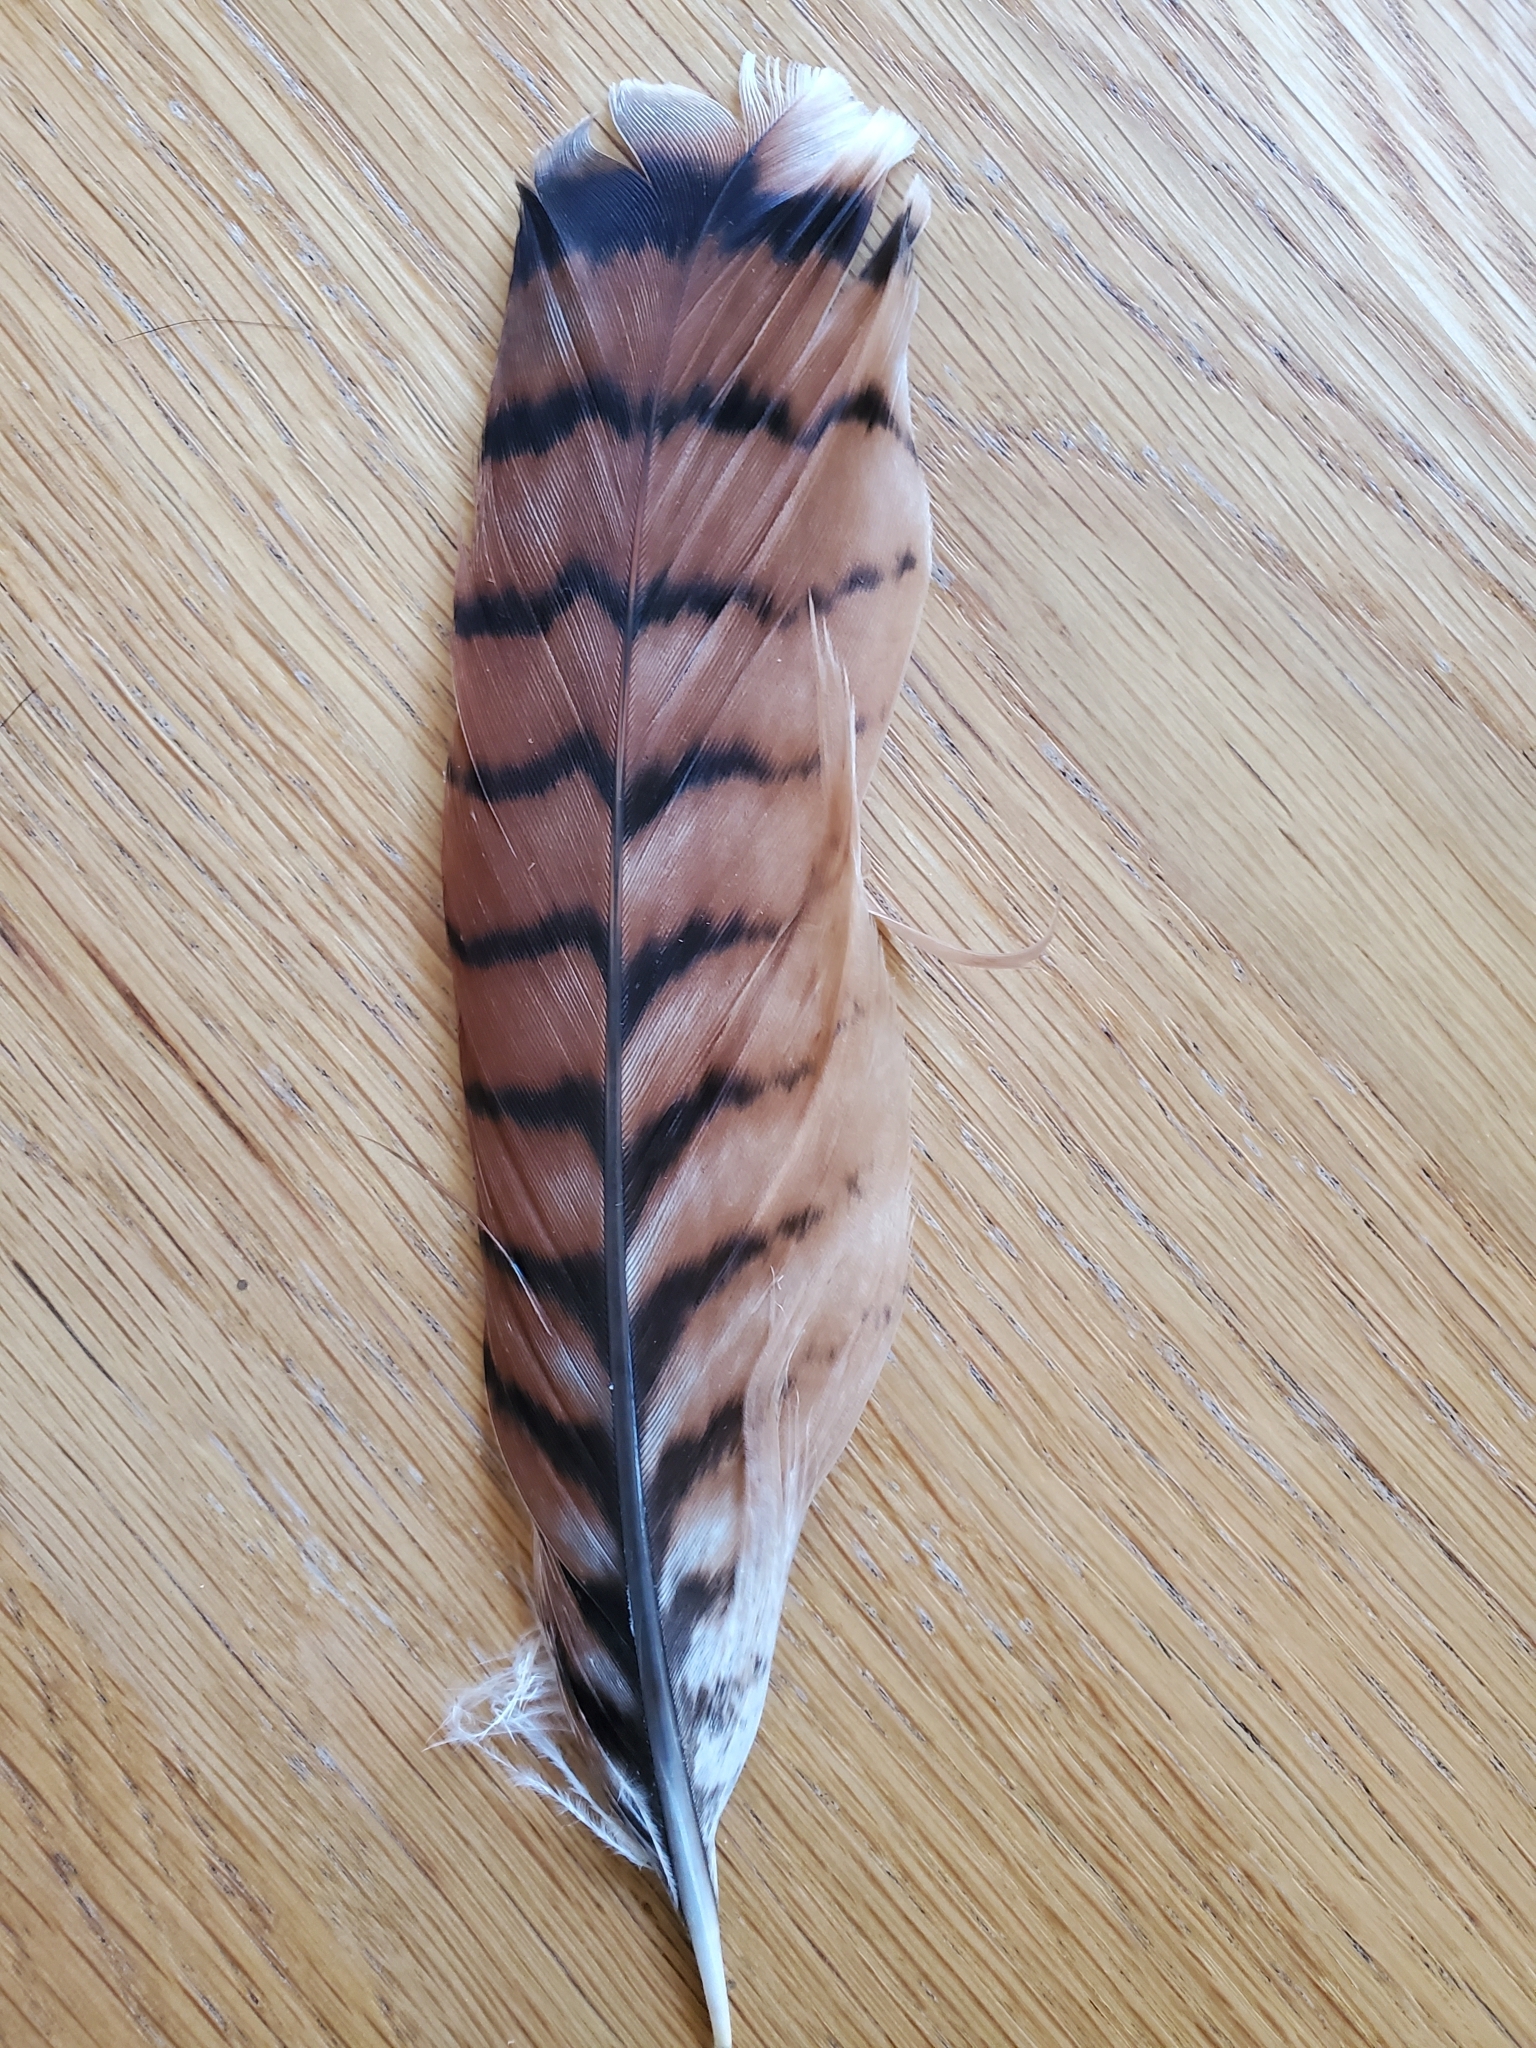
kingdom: Animalia
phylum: Chordata
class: Aves
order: Accipitriformes
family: Accipitridae
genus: Buteo
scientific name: Buteo jamaicensis
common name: Red-tailed hawk
